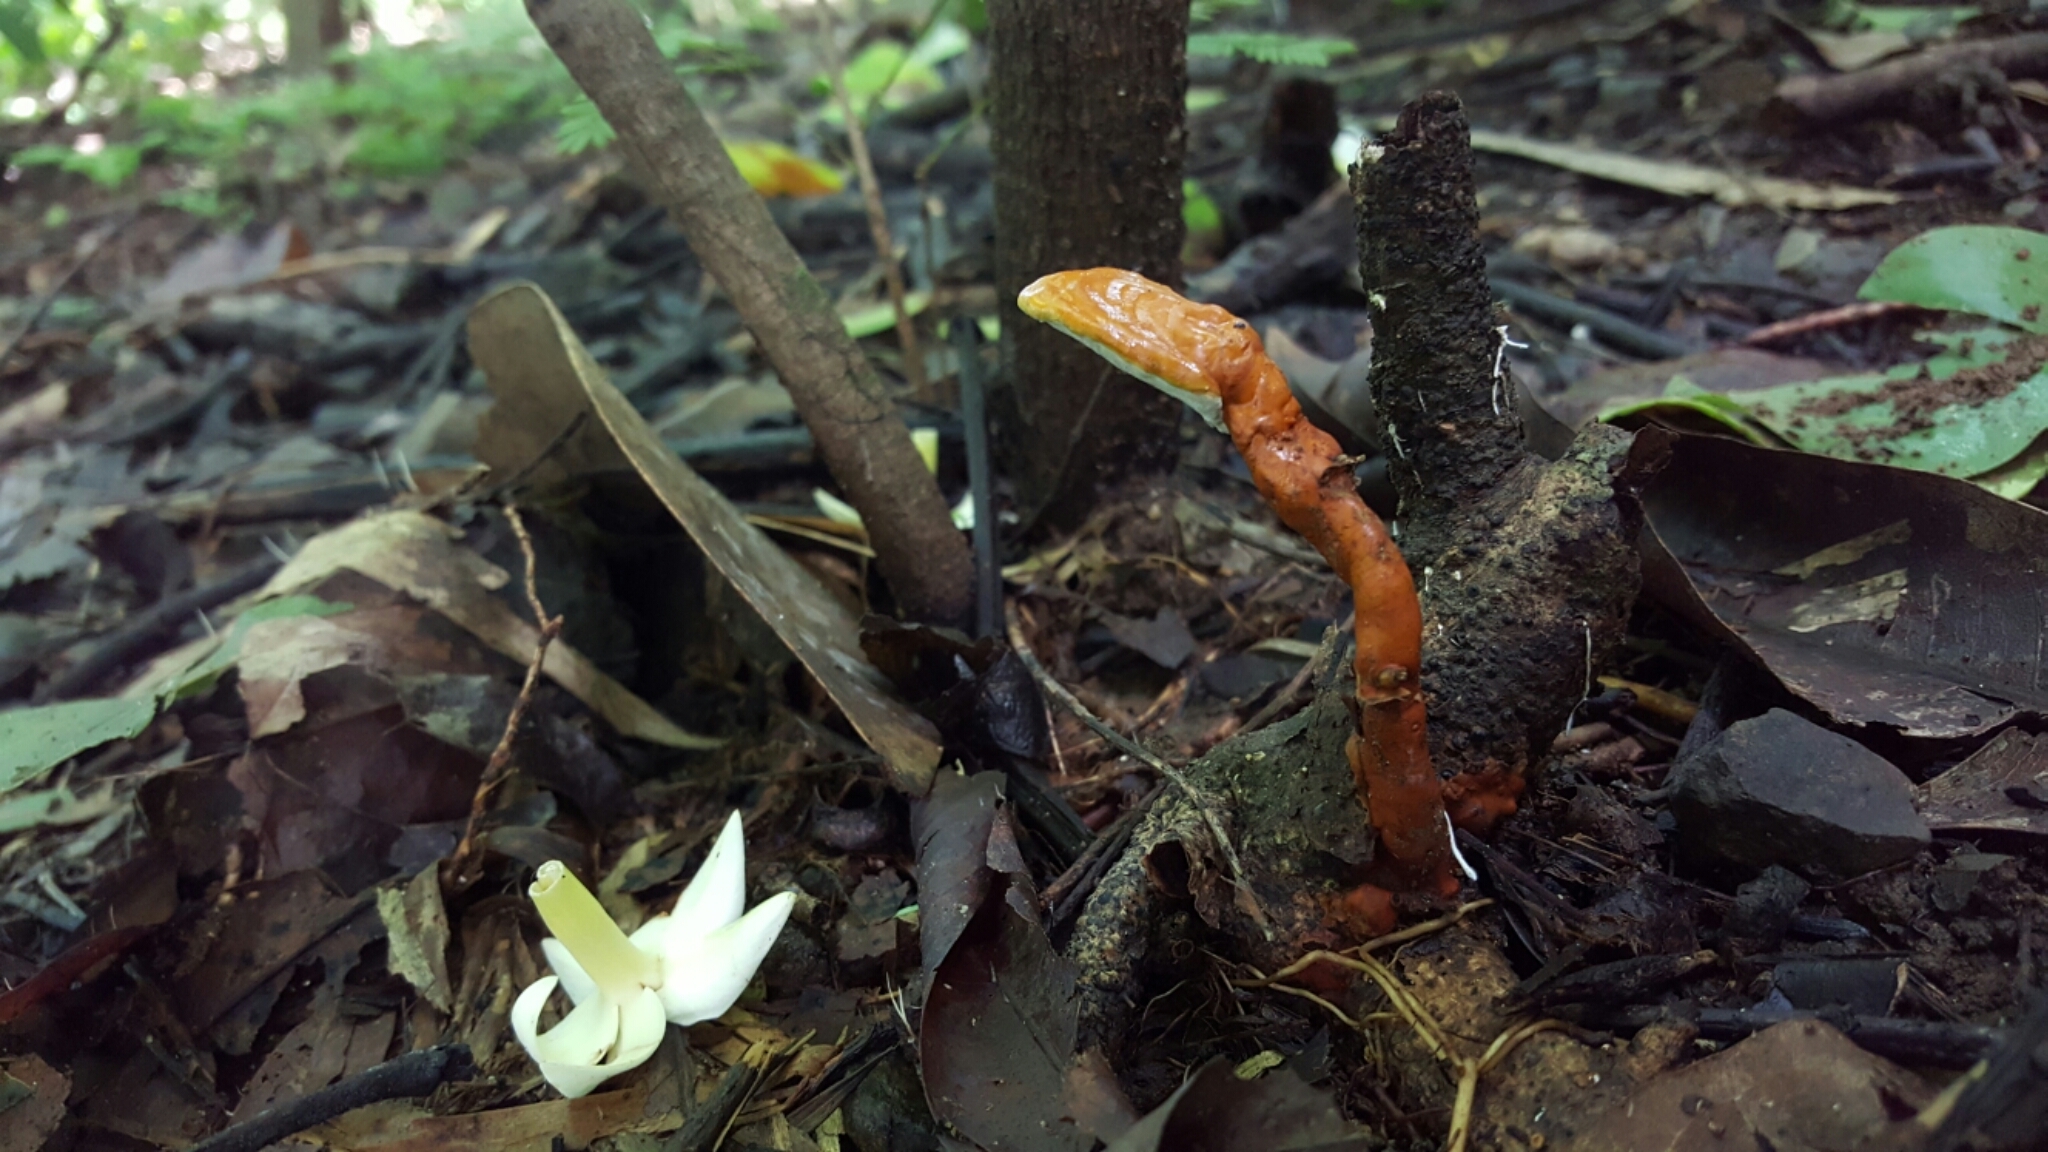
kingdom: Fungi
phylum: Basidiomycota
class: Agaricomycetes
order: Polyporales
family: Polyporaceae
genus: Ganoderma
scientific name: Ganoderma curtisii
